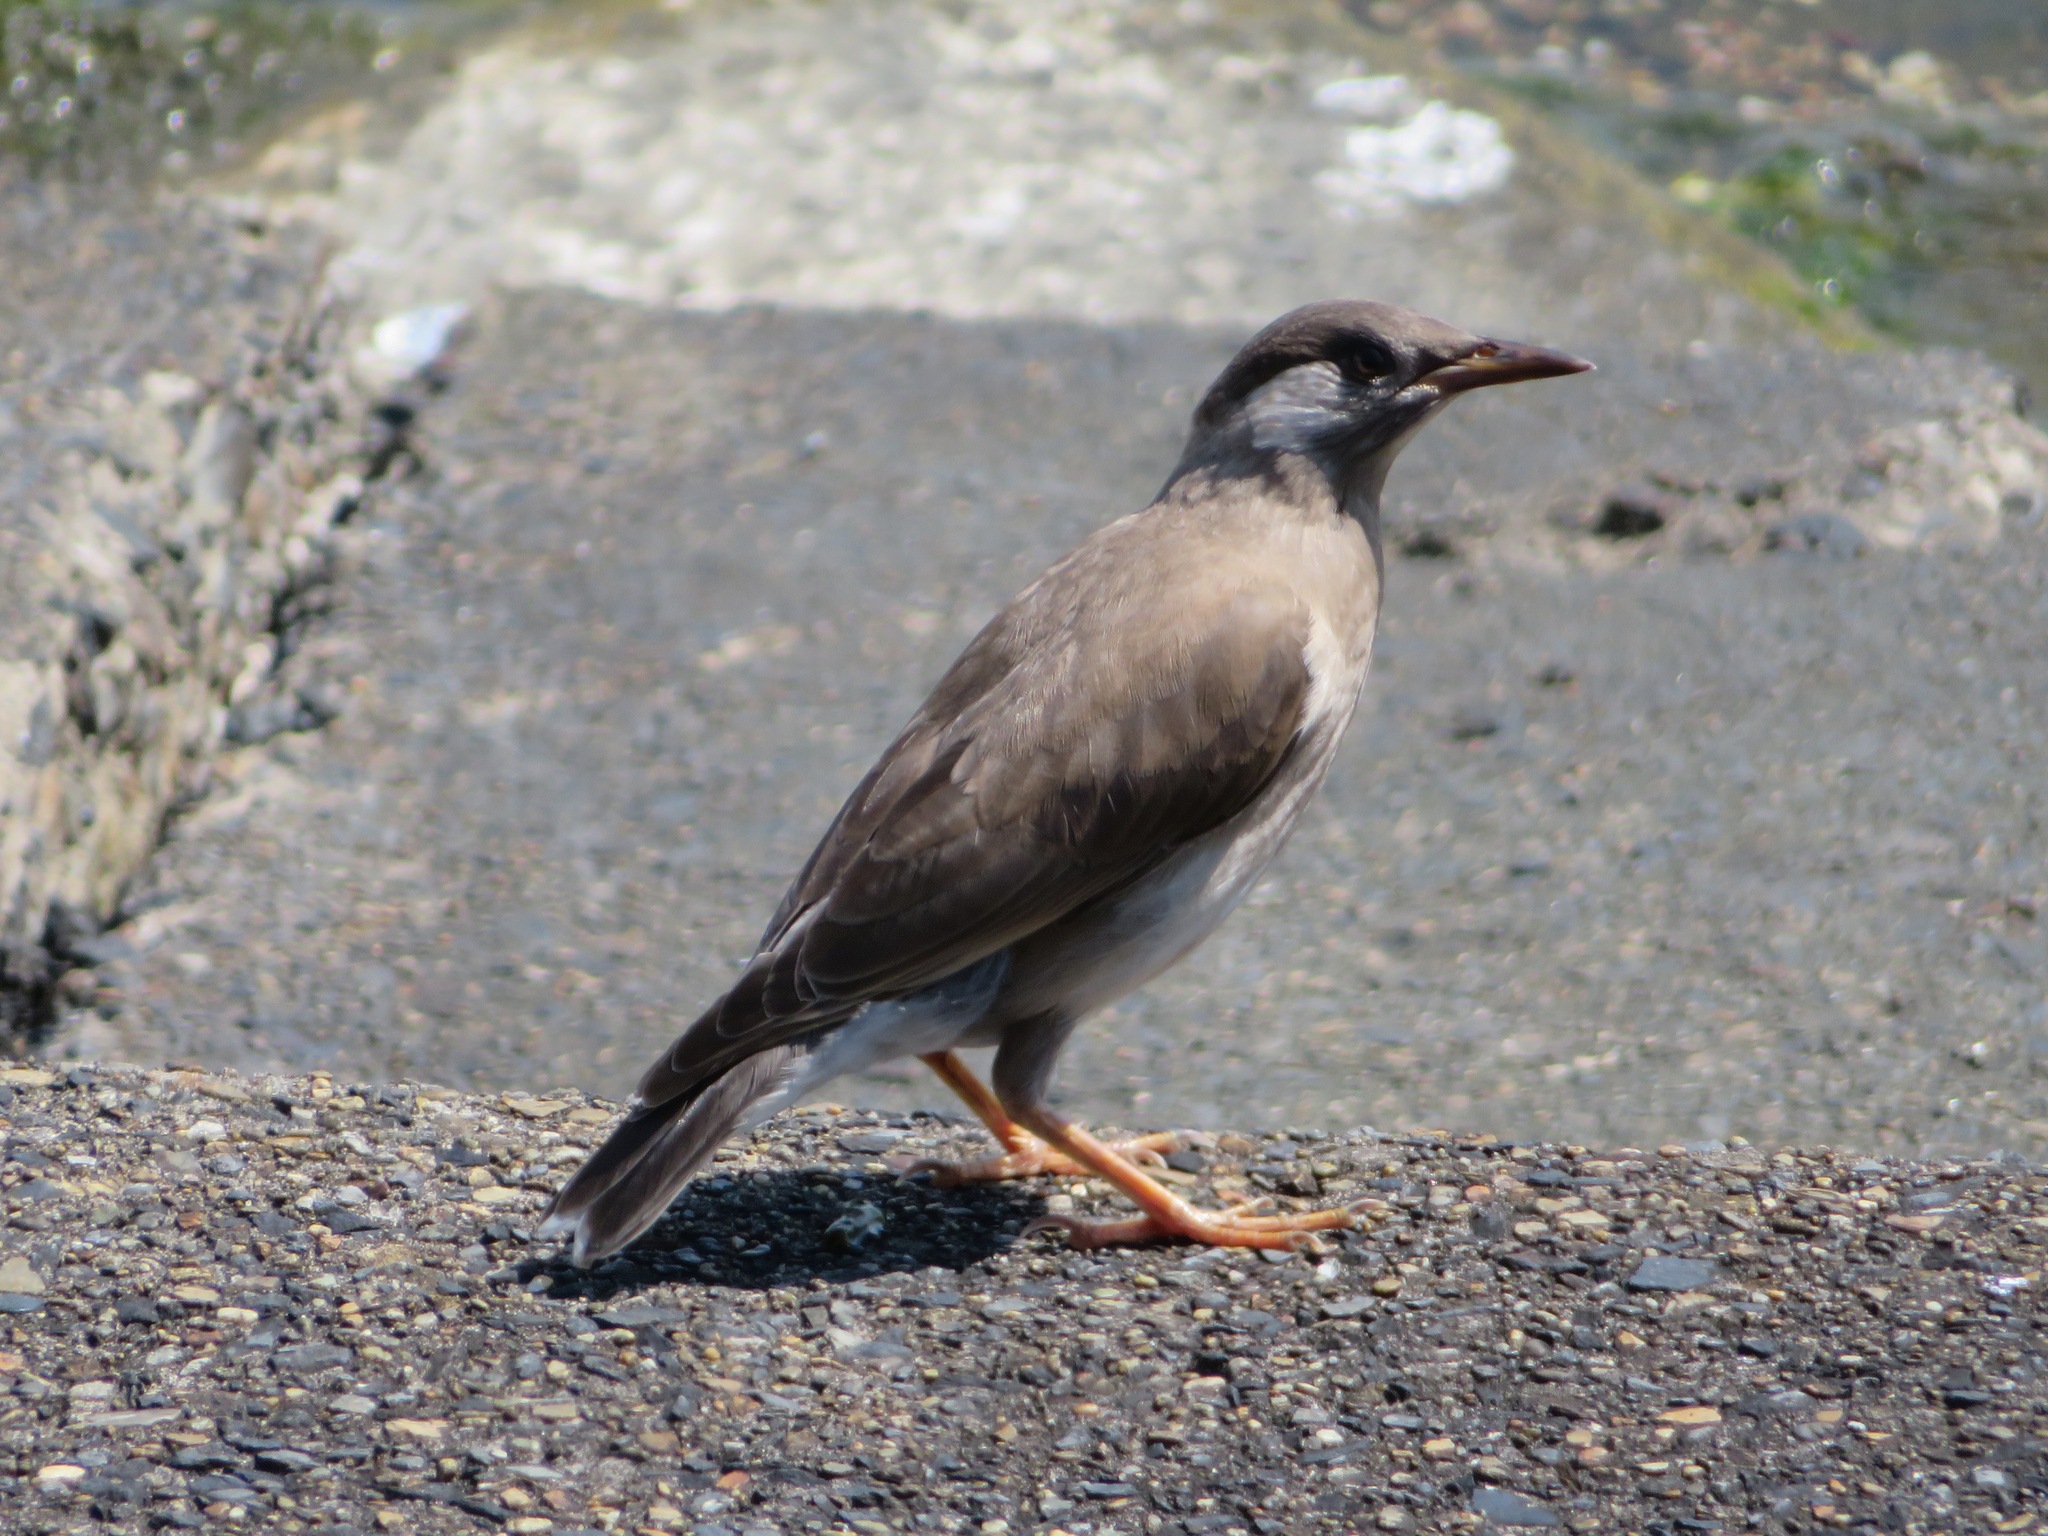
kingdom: Animalia
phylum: Chordata
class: Aves
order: Passeriformes
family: Sturnidae
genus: Spodiopsar
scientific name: Spodiopsar cineraceus
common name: White-cheeked starling
